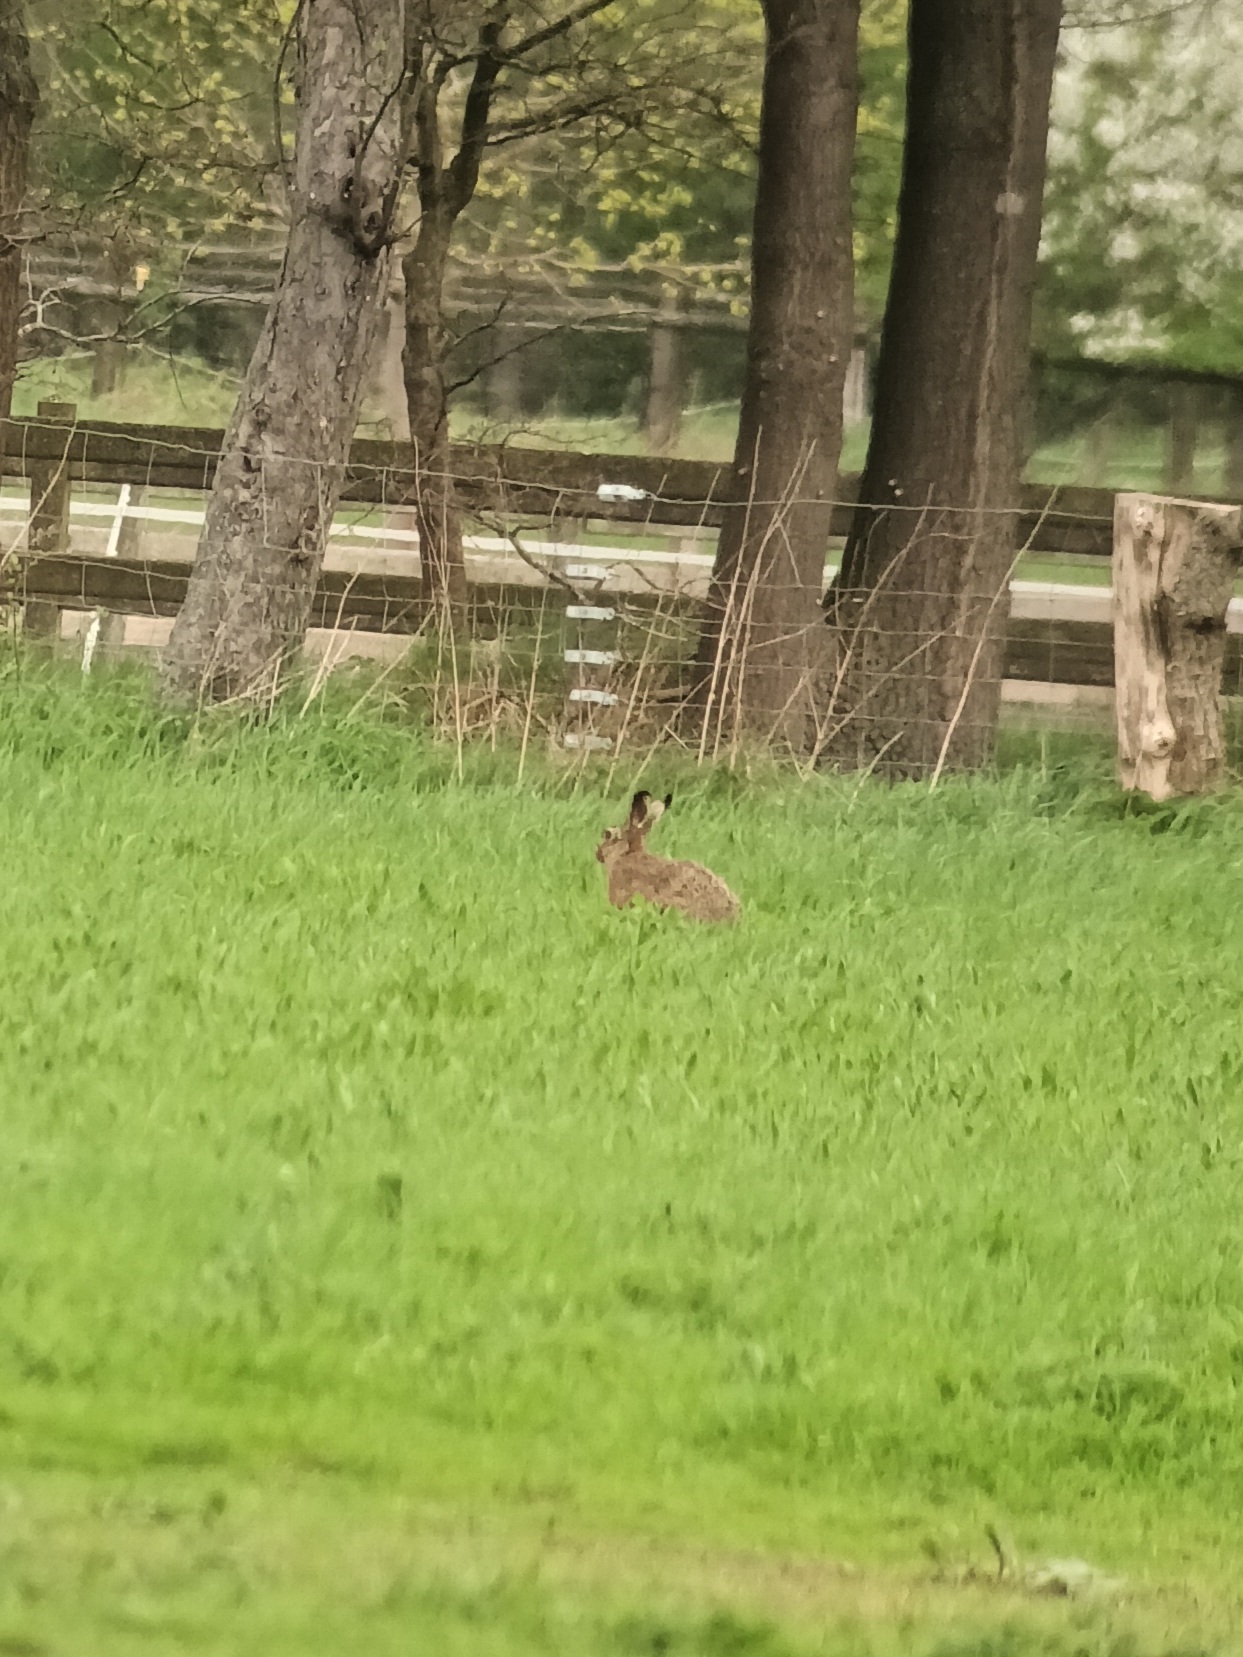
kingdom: Animalia
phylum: Chordata
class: Mammalia
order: Lagomorpha
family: Leporidae
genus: Lepus
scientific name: Lepus europaeus
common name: European hare
